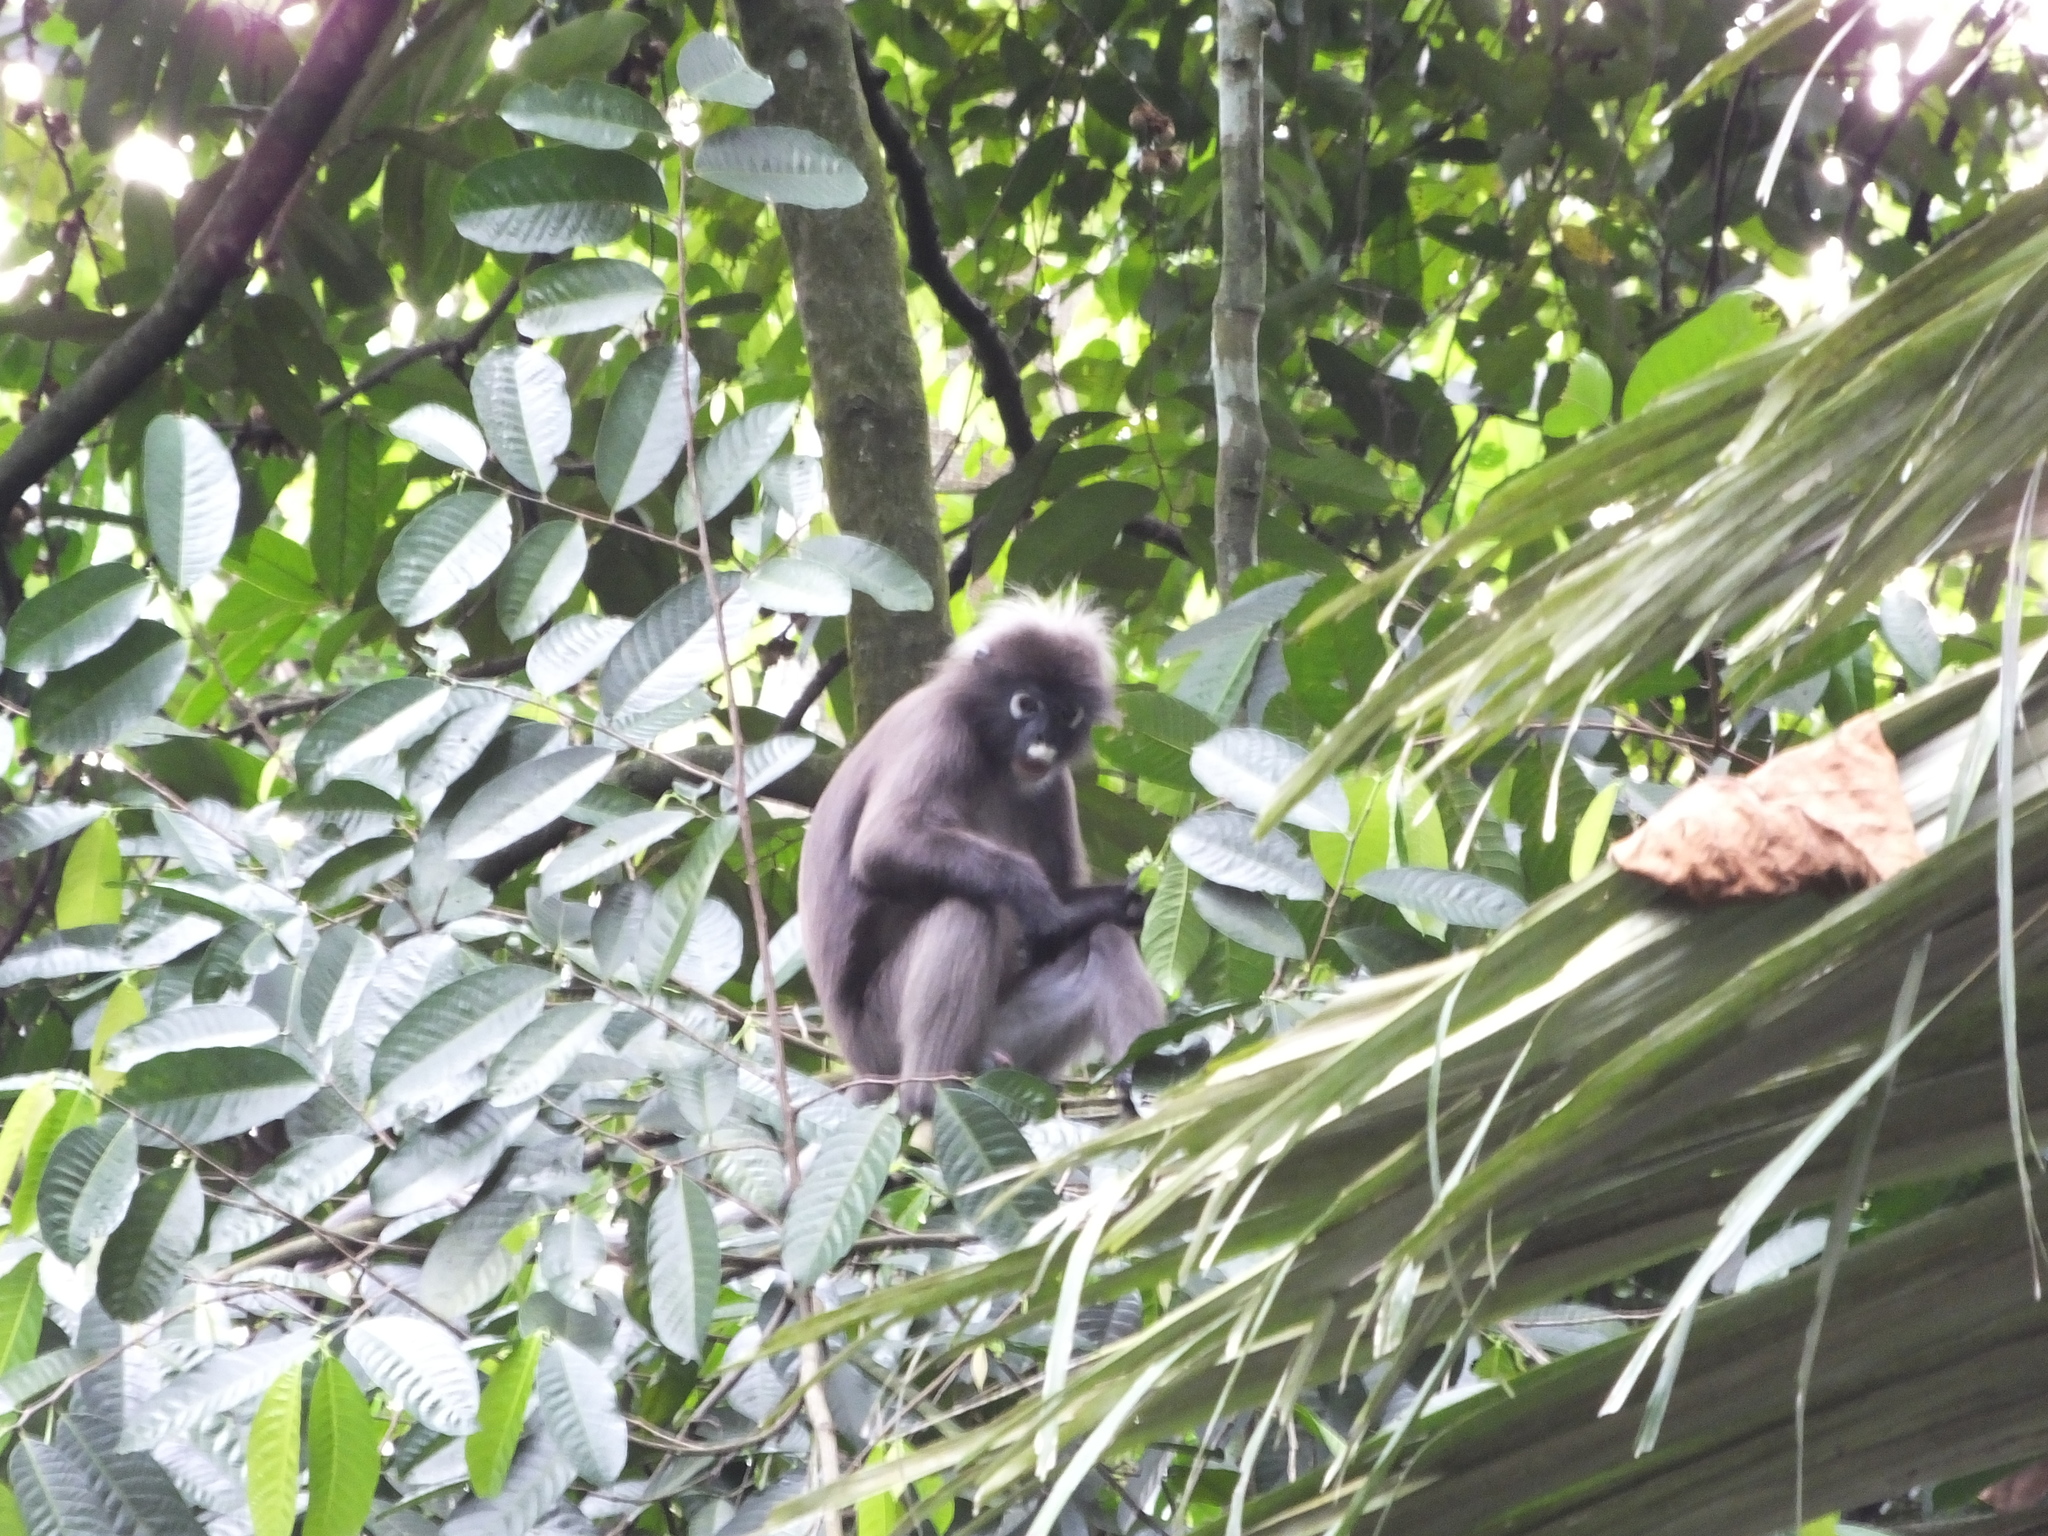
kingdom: Animalia
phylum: Chordata
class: Mammalia
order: Primates
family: Cercopithecidae
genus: Trachypithecus
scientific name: Trachypithecus obscurus
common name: Dusky leaf-monkey
